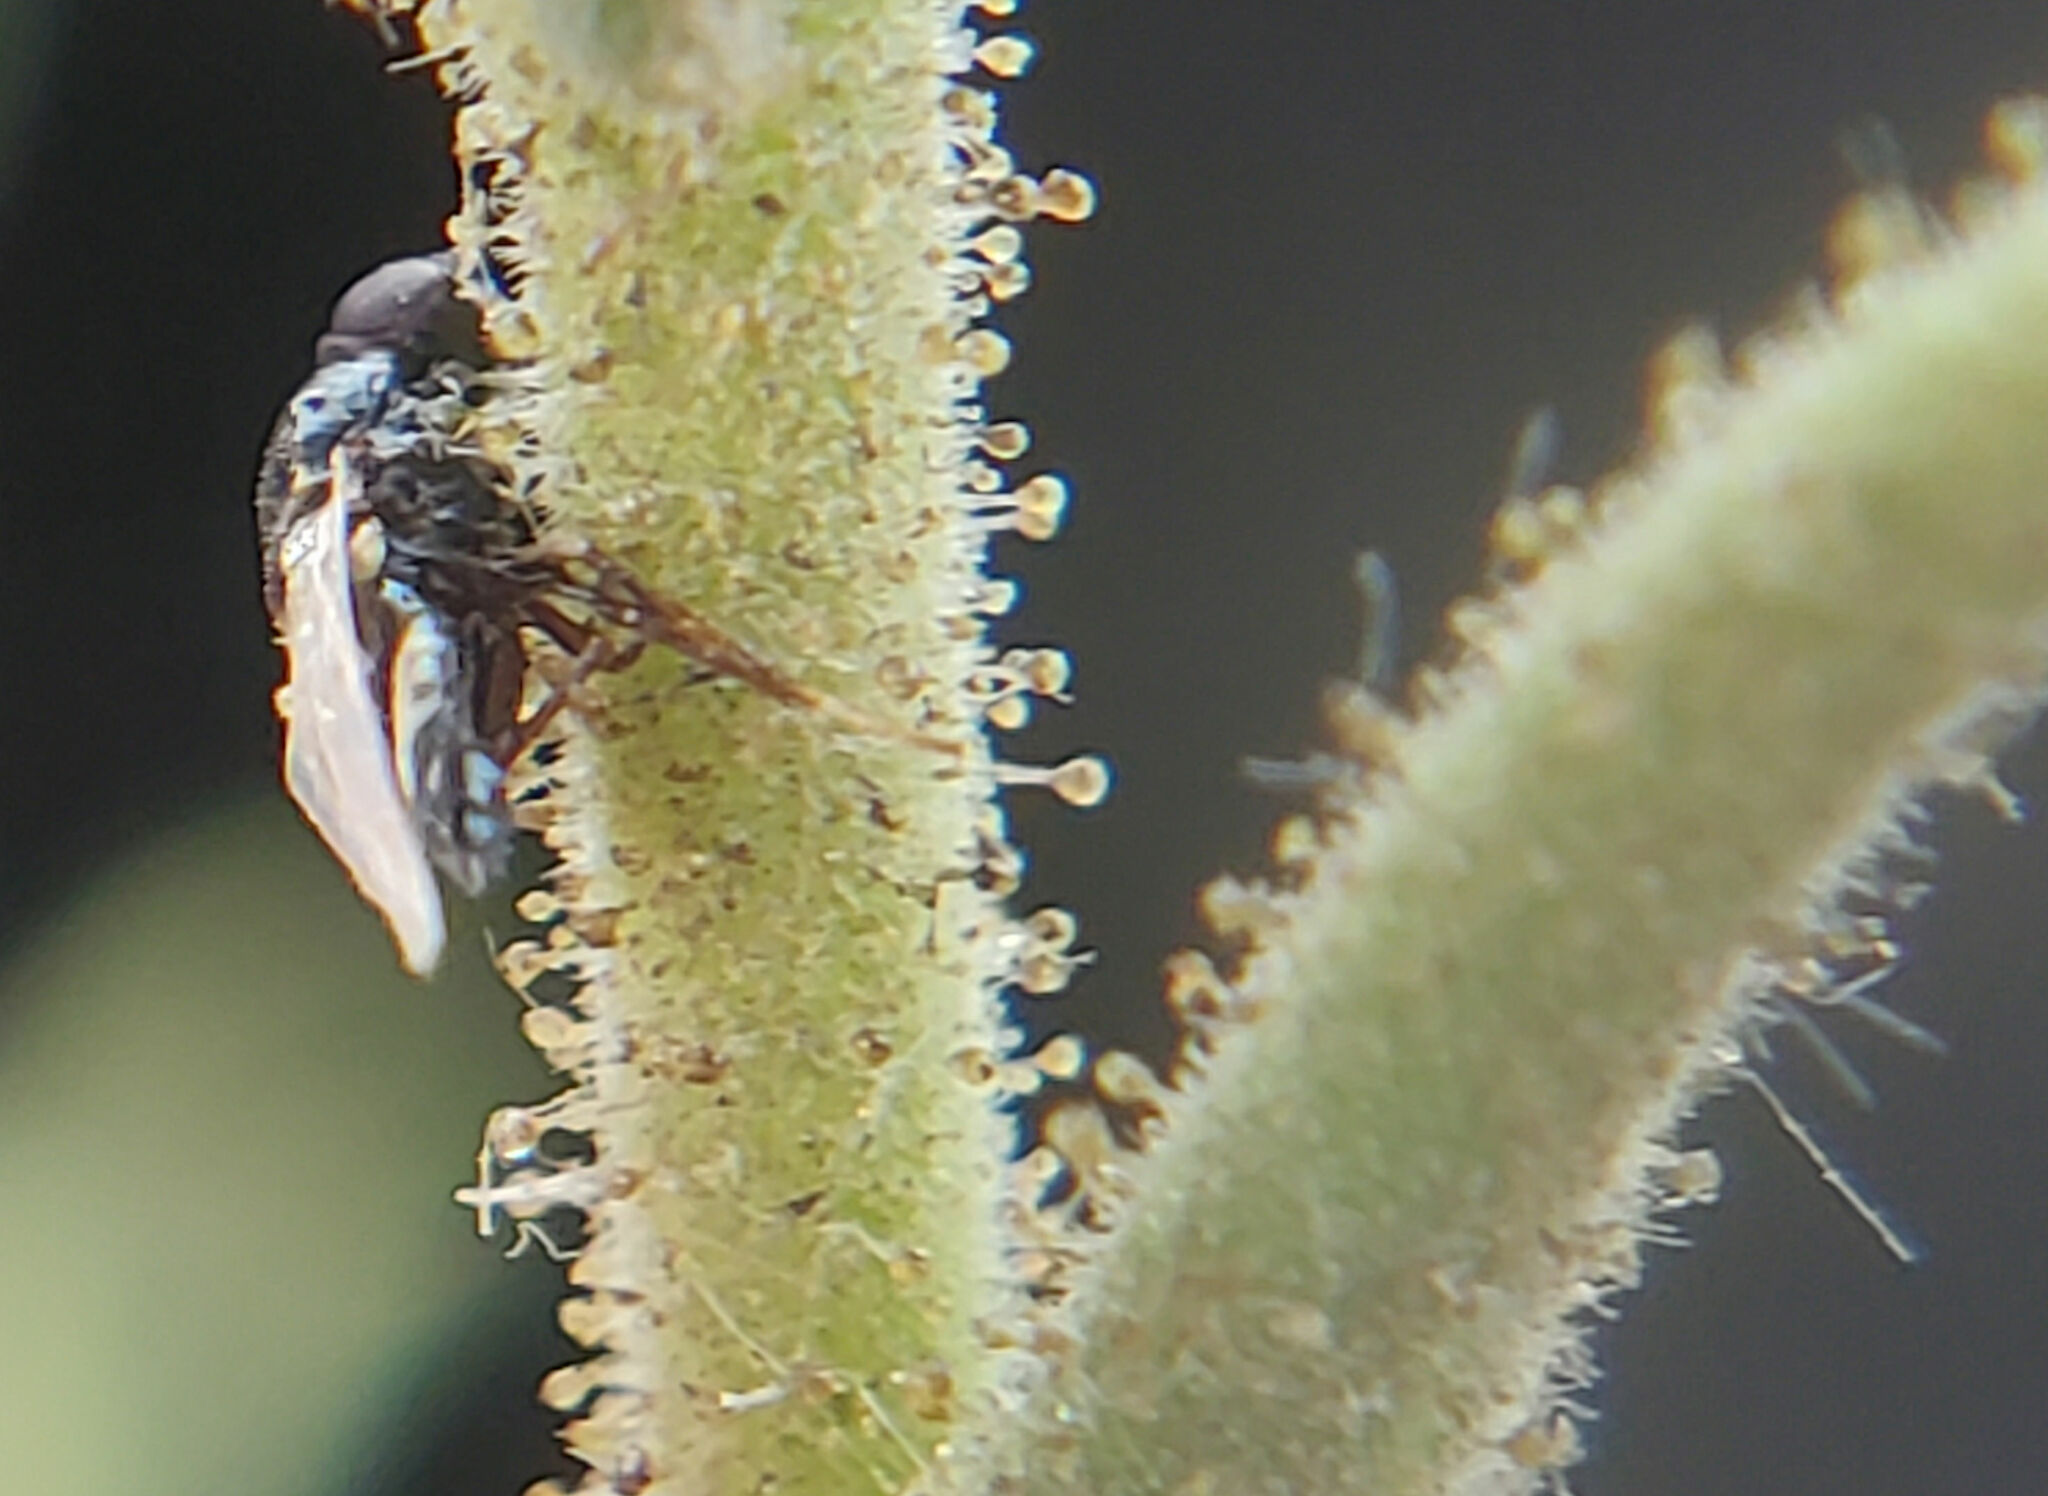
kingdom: Plantae
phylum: Tracheophyta
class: Magnoliopsida
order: Asterales
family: Asteraceae
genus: Hemizonia
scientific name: Hemizonia congesta
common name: Hayfield tarweed
